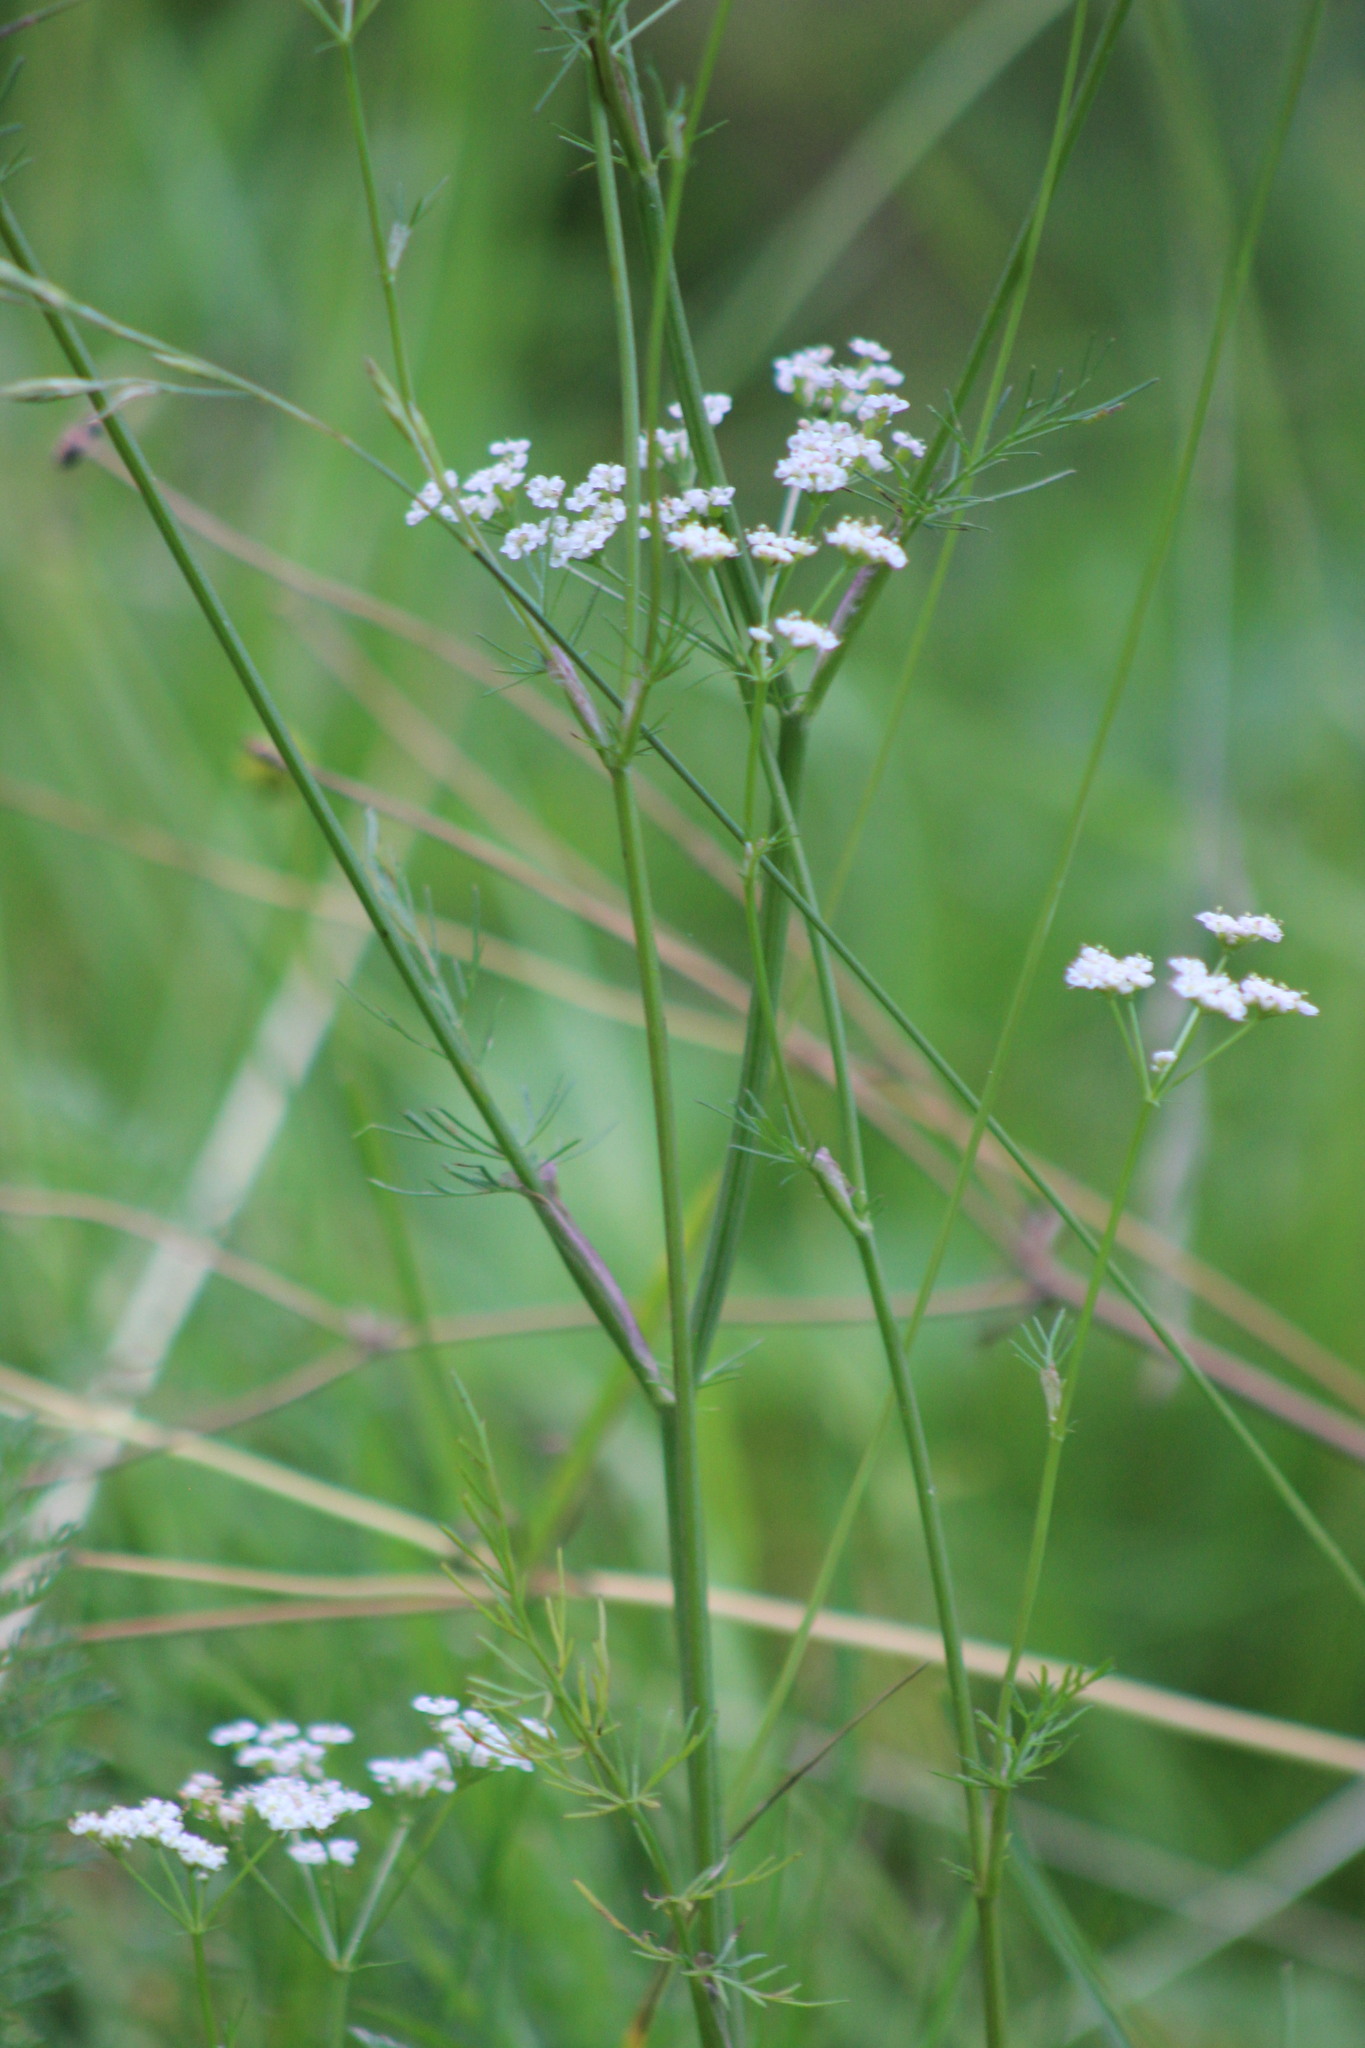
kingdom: Plantae
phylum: Tracheophyta
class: Magnoliopsida
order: Apiales
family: Apiaceae
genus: Carum
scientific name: Carum carvi
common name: Caraway
